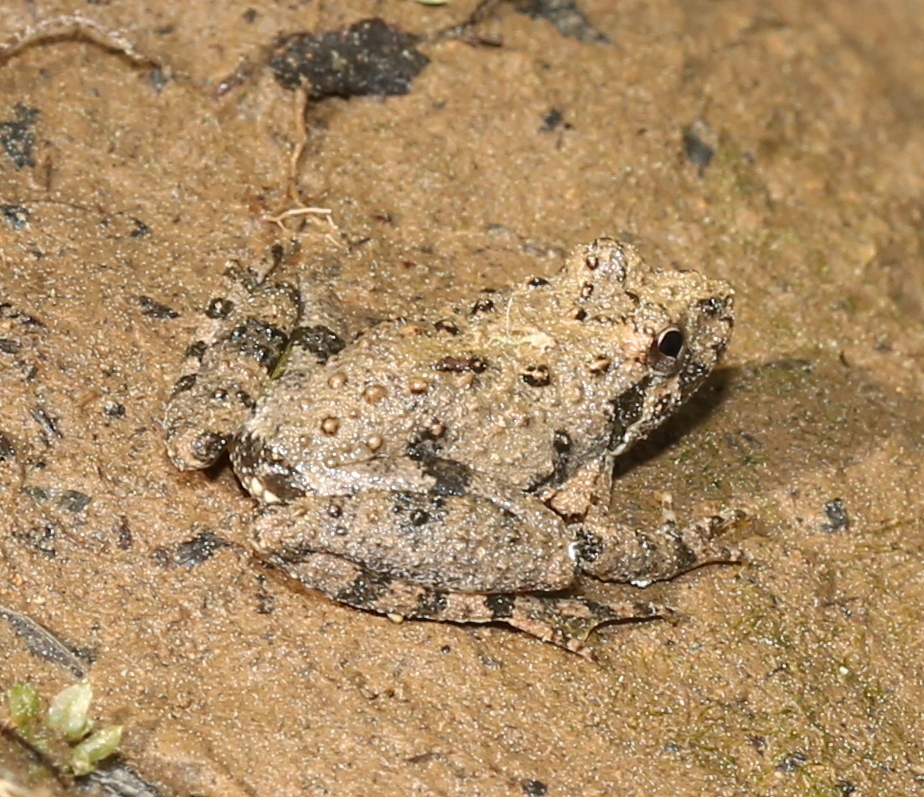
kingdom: Animalia
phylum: Chordata
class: Amphibia
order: Anura
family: Hylidae
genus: Acris
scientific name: Acris crepitans
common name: Northern cricket frog
